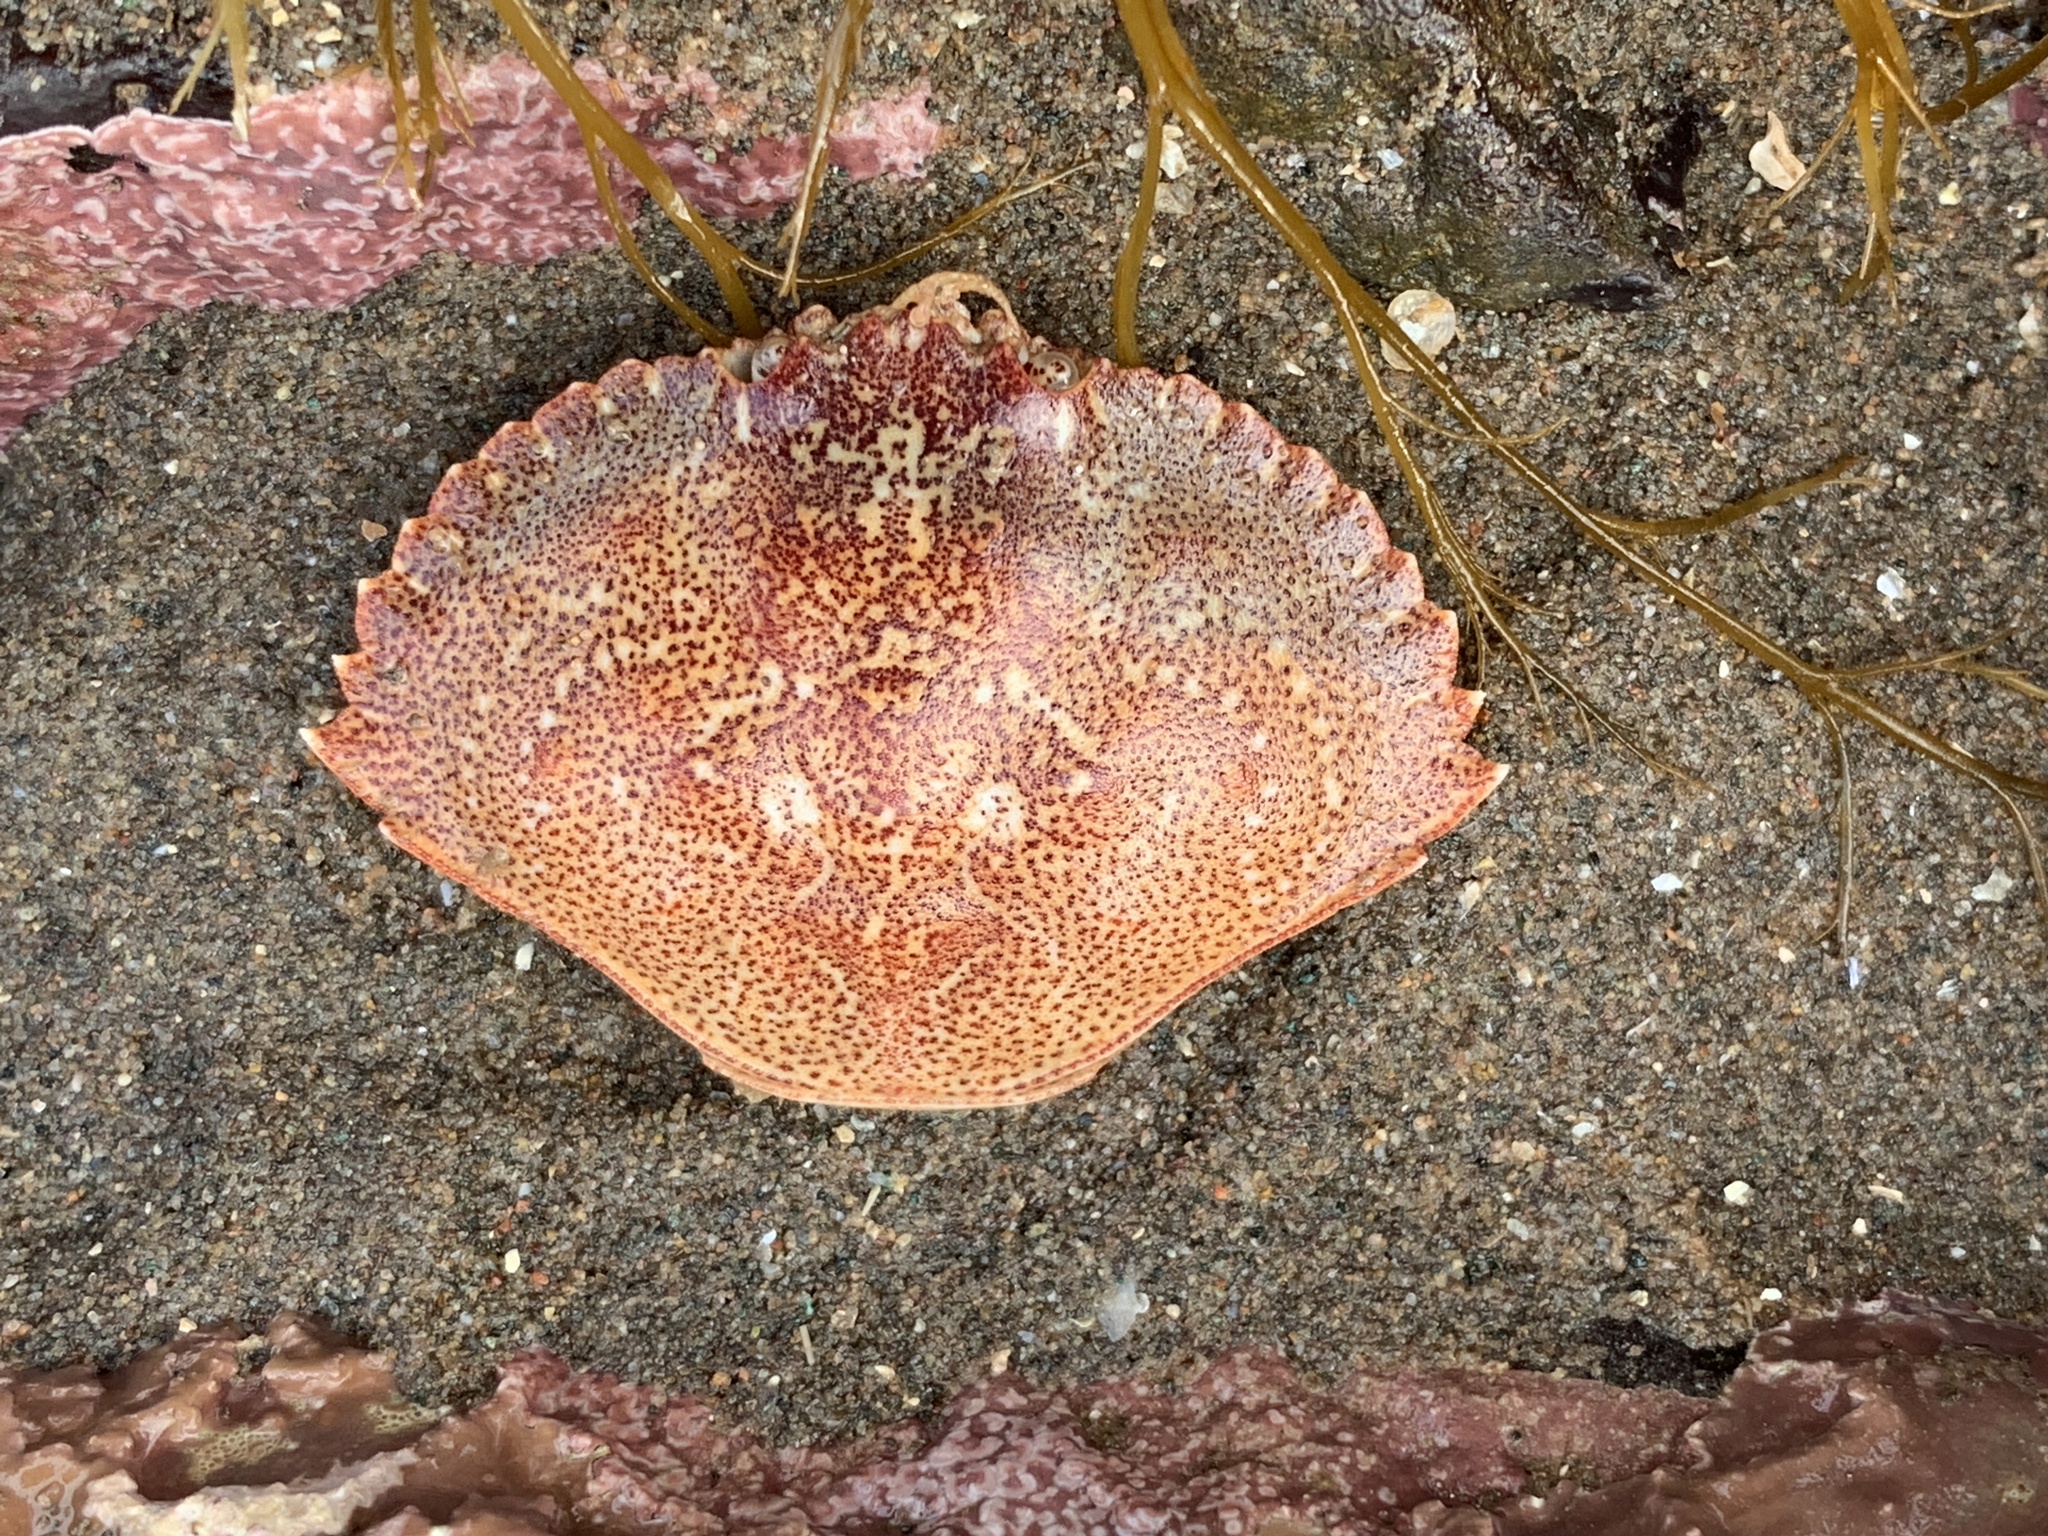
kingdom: Animalia
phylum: Arthropoda
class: Malacostraca
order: Decapoda
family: Cancridae
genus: Cancer
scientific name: Cancer irroratus
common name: Atlantic rock crab
